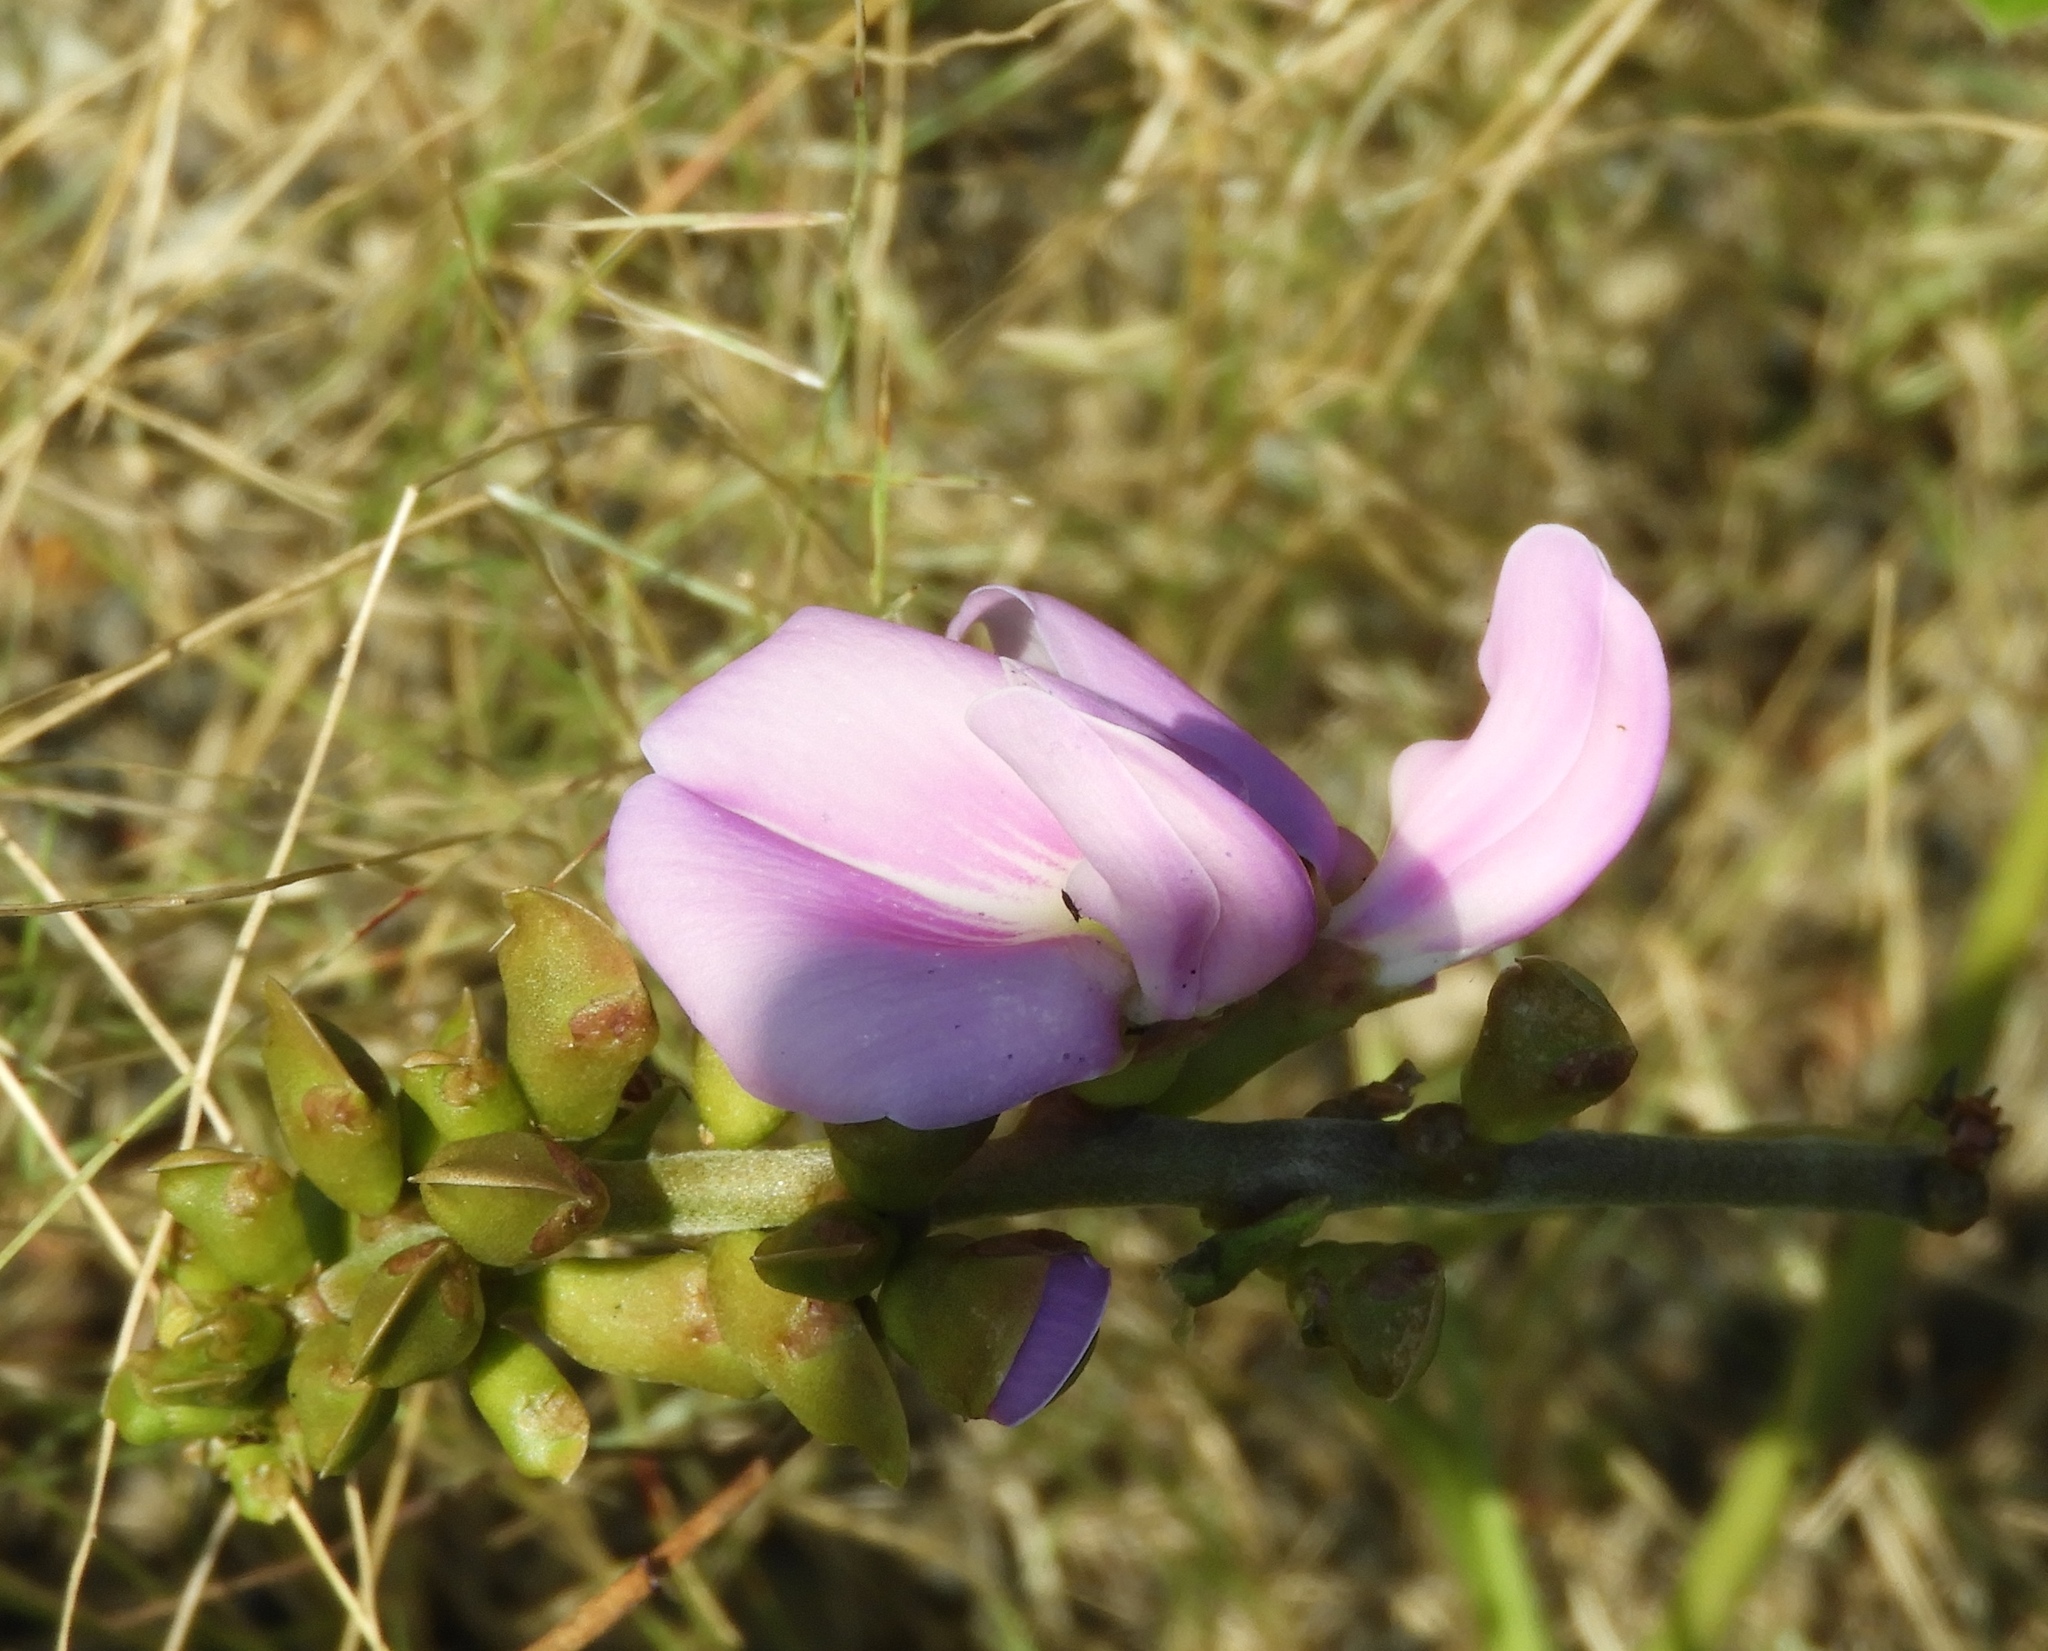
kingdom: Plantae
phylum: Tracheophyta
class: Magnoliopsida
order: Fabales
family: Fabaceae
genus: Canavalia
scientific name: Canavalia rosea
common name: Beach-bean
